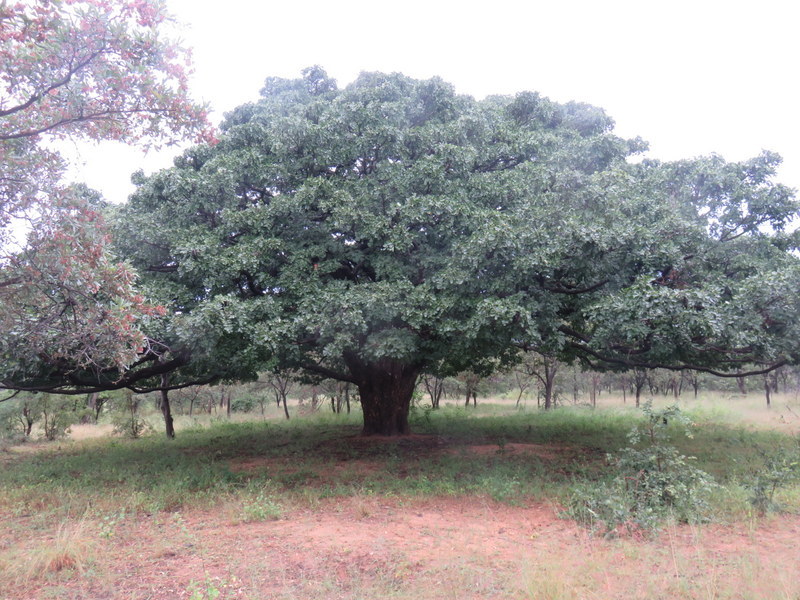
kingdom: Plantae
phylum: Tracheophyta
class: Magnoliopsida
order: Fabales
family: Fabaceae
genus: Afzelia
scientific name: Afzelia quanzensis
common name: Pod mahogany
